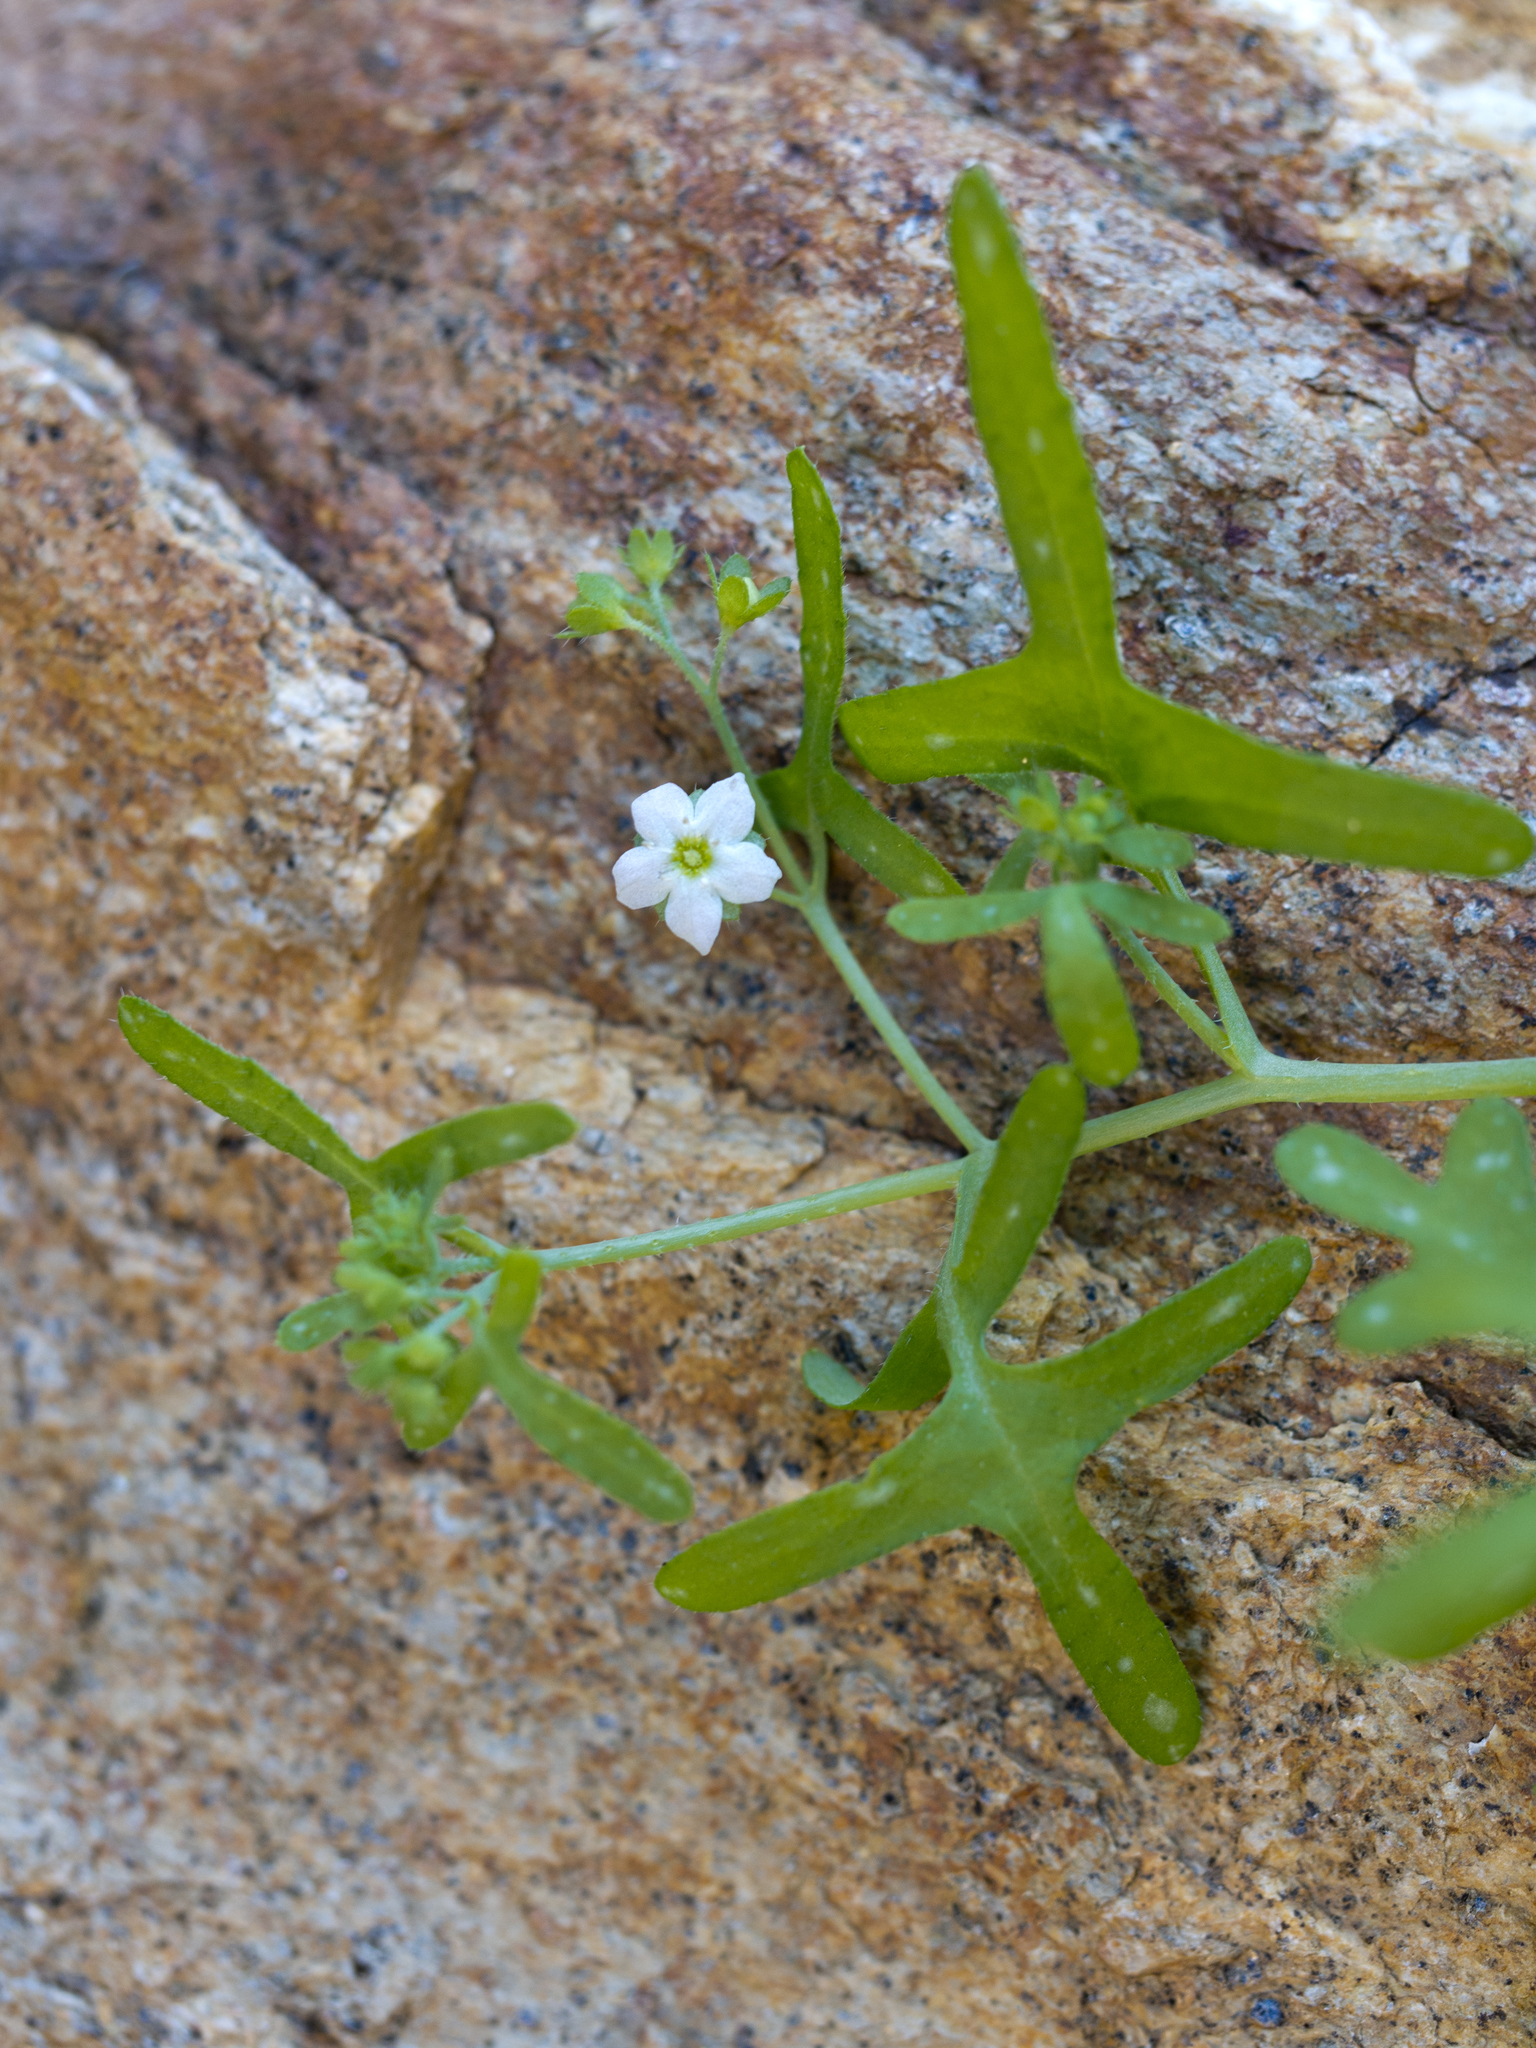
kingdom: Plantae
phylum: Tracheophyta
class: Magnoliopsida
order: Boraginales
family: Hydrophyllaceae
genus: Pholistoma
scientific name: Pholistoma membranaceum
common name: White fiesta-flower
